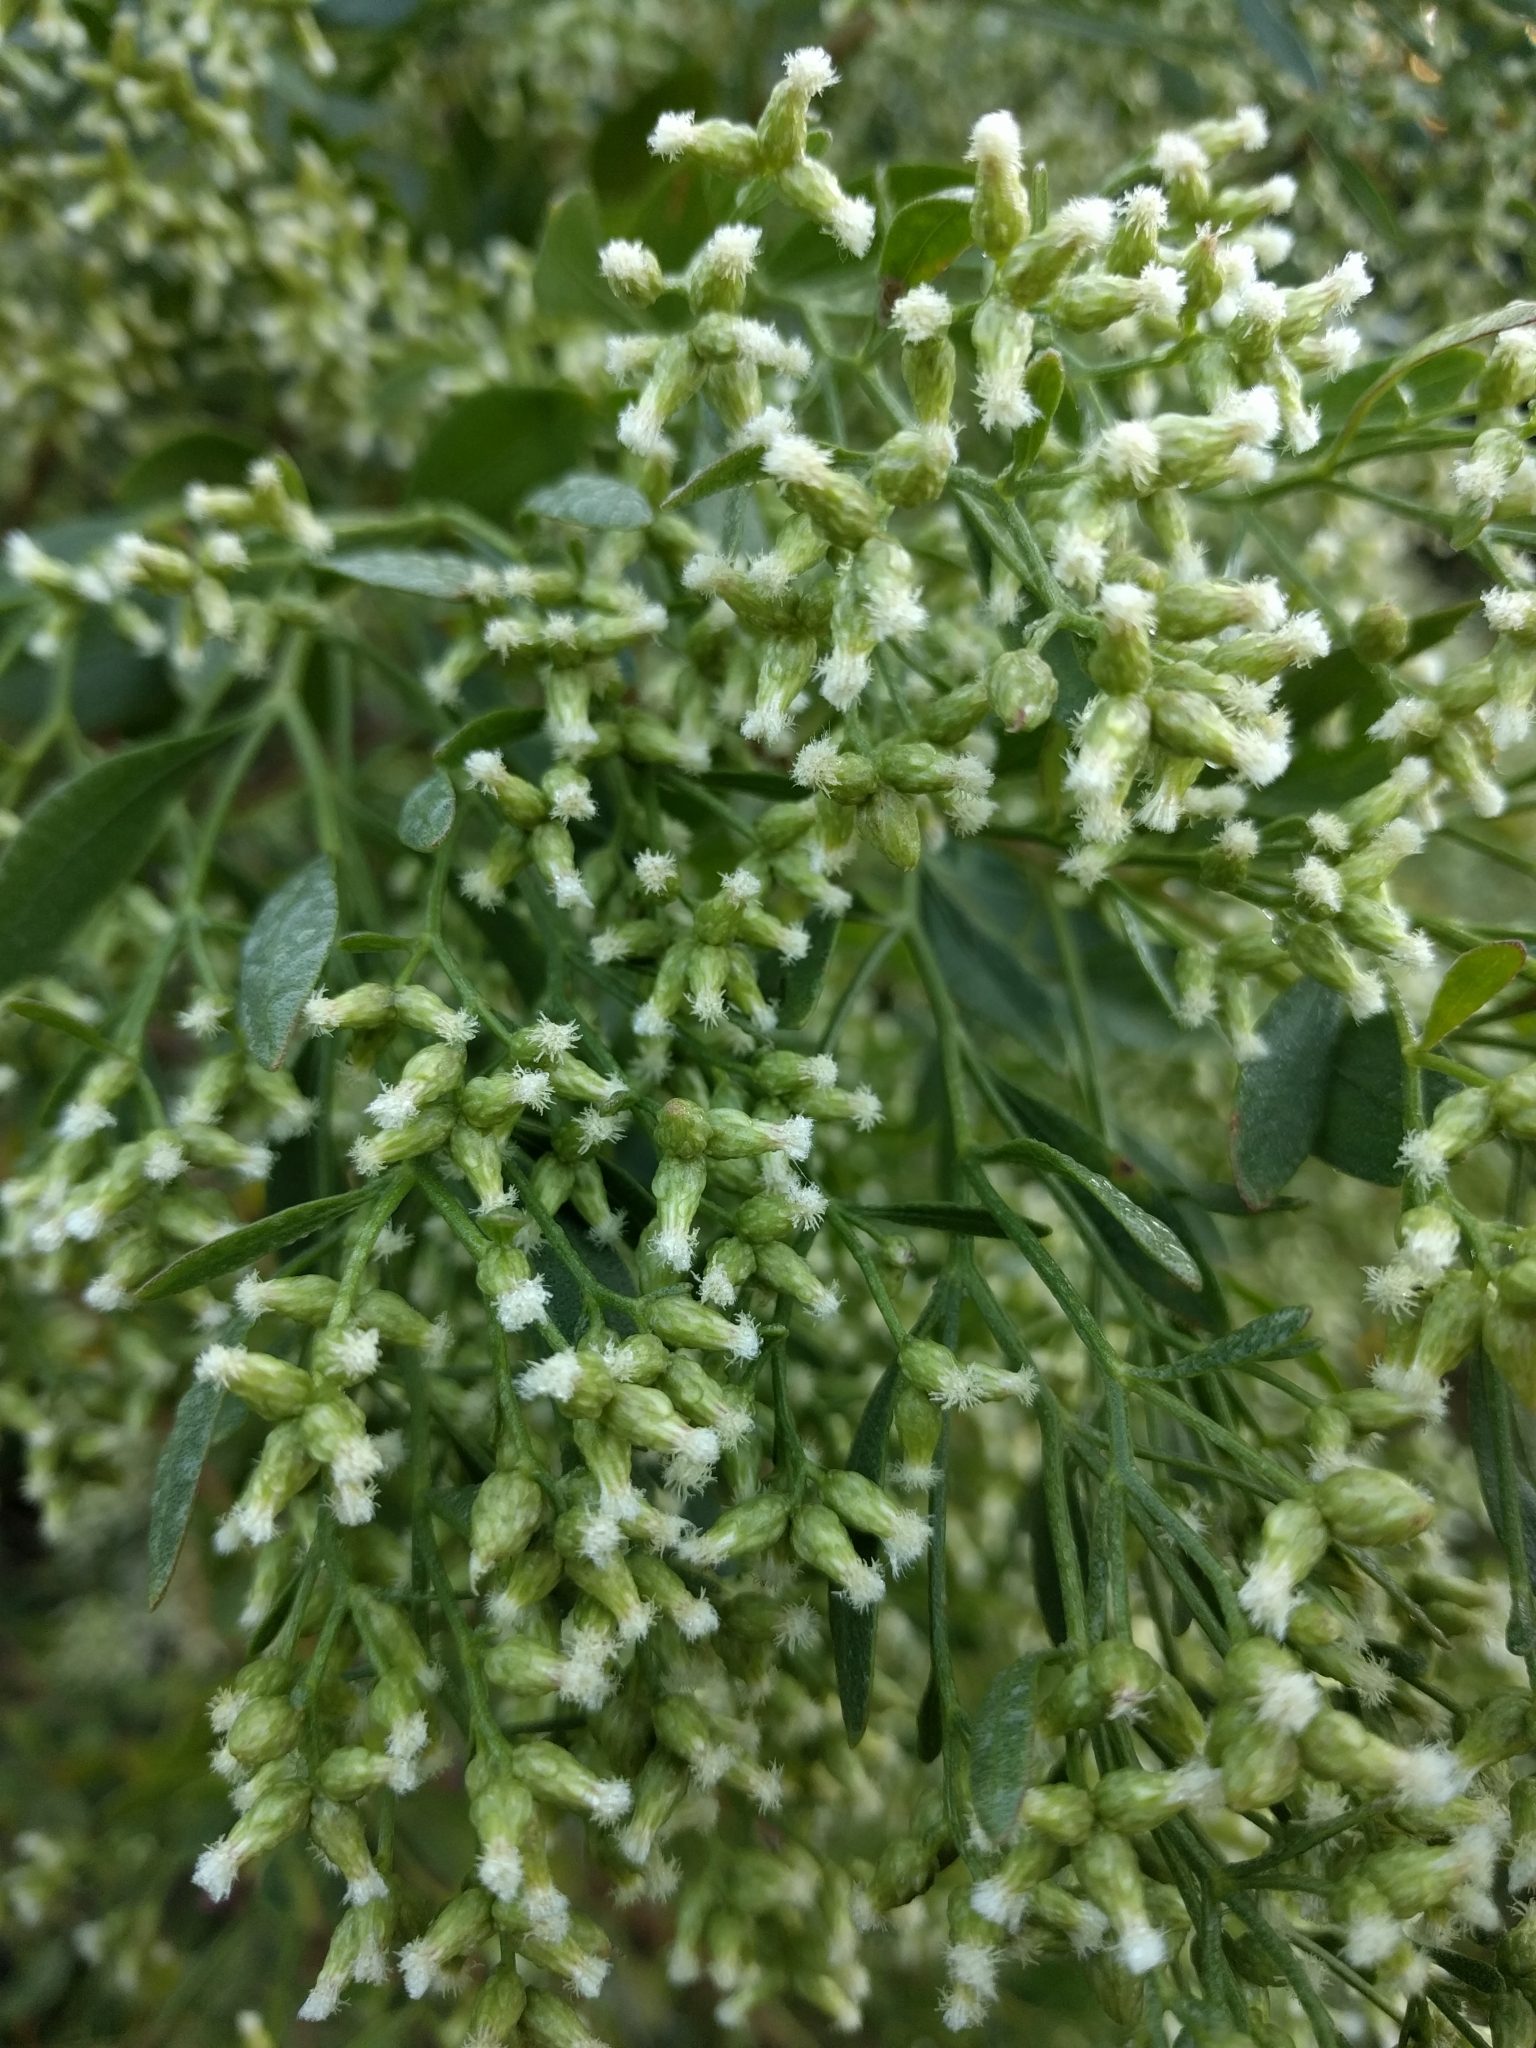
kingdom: Plantae
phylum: Tracheophyta
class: Magnoliopsida
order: Asterales
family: Asteraceae
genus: Baccharis
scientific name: Baccharis halimifolia
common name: Eastern baccharis
